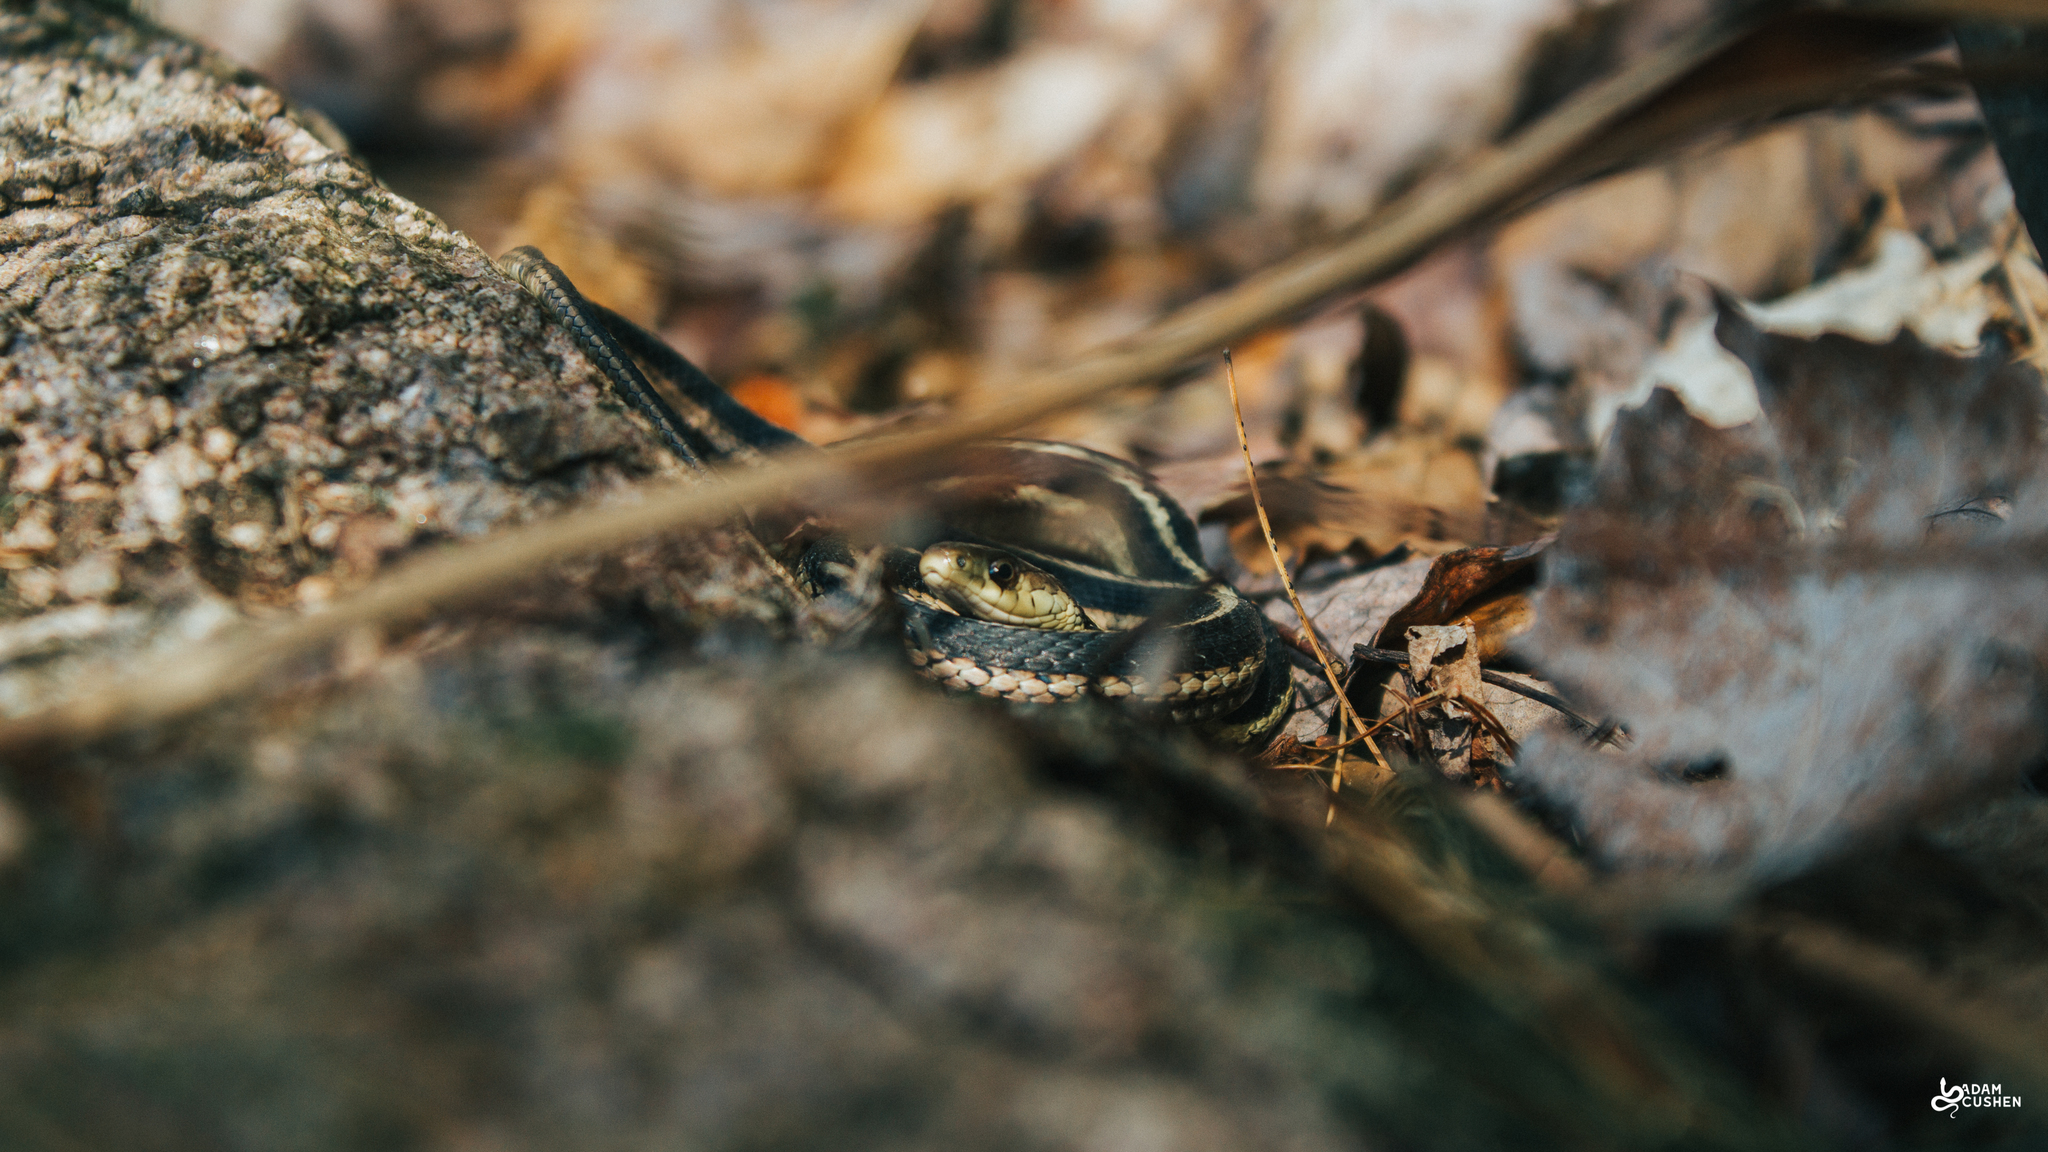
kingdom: Animalia
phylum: Chordata
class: Squamata
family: Colubridae
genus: Thamnophis
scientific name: Thamnophis sirtalis
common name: Common garter snake
